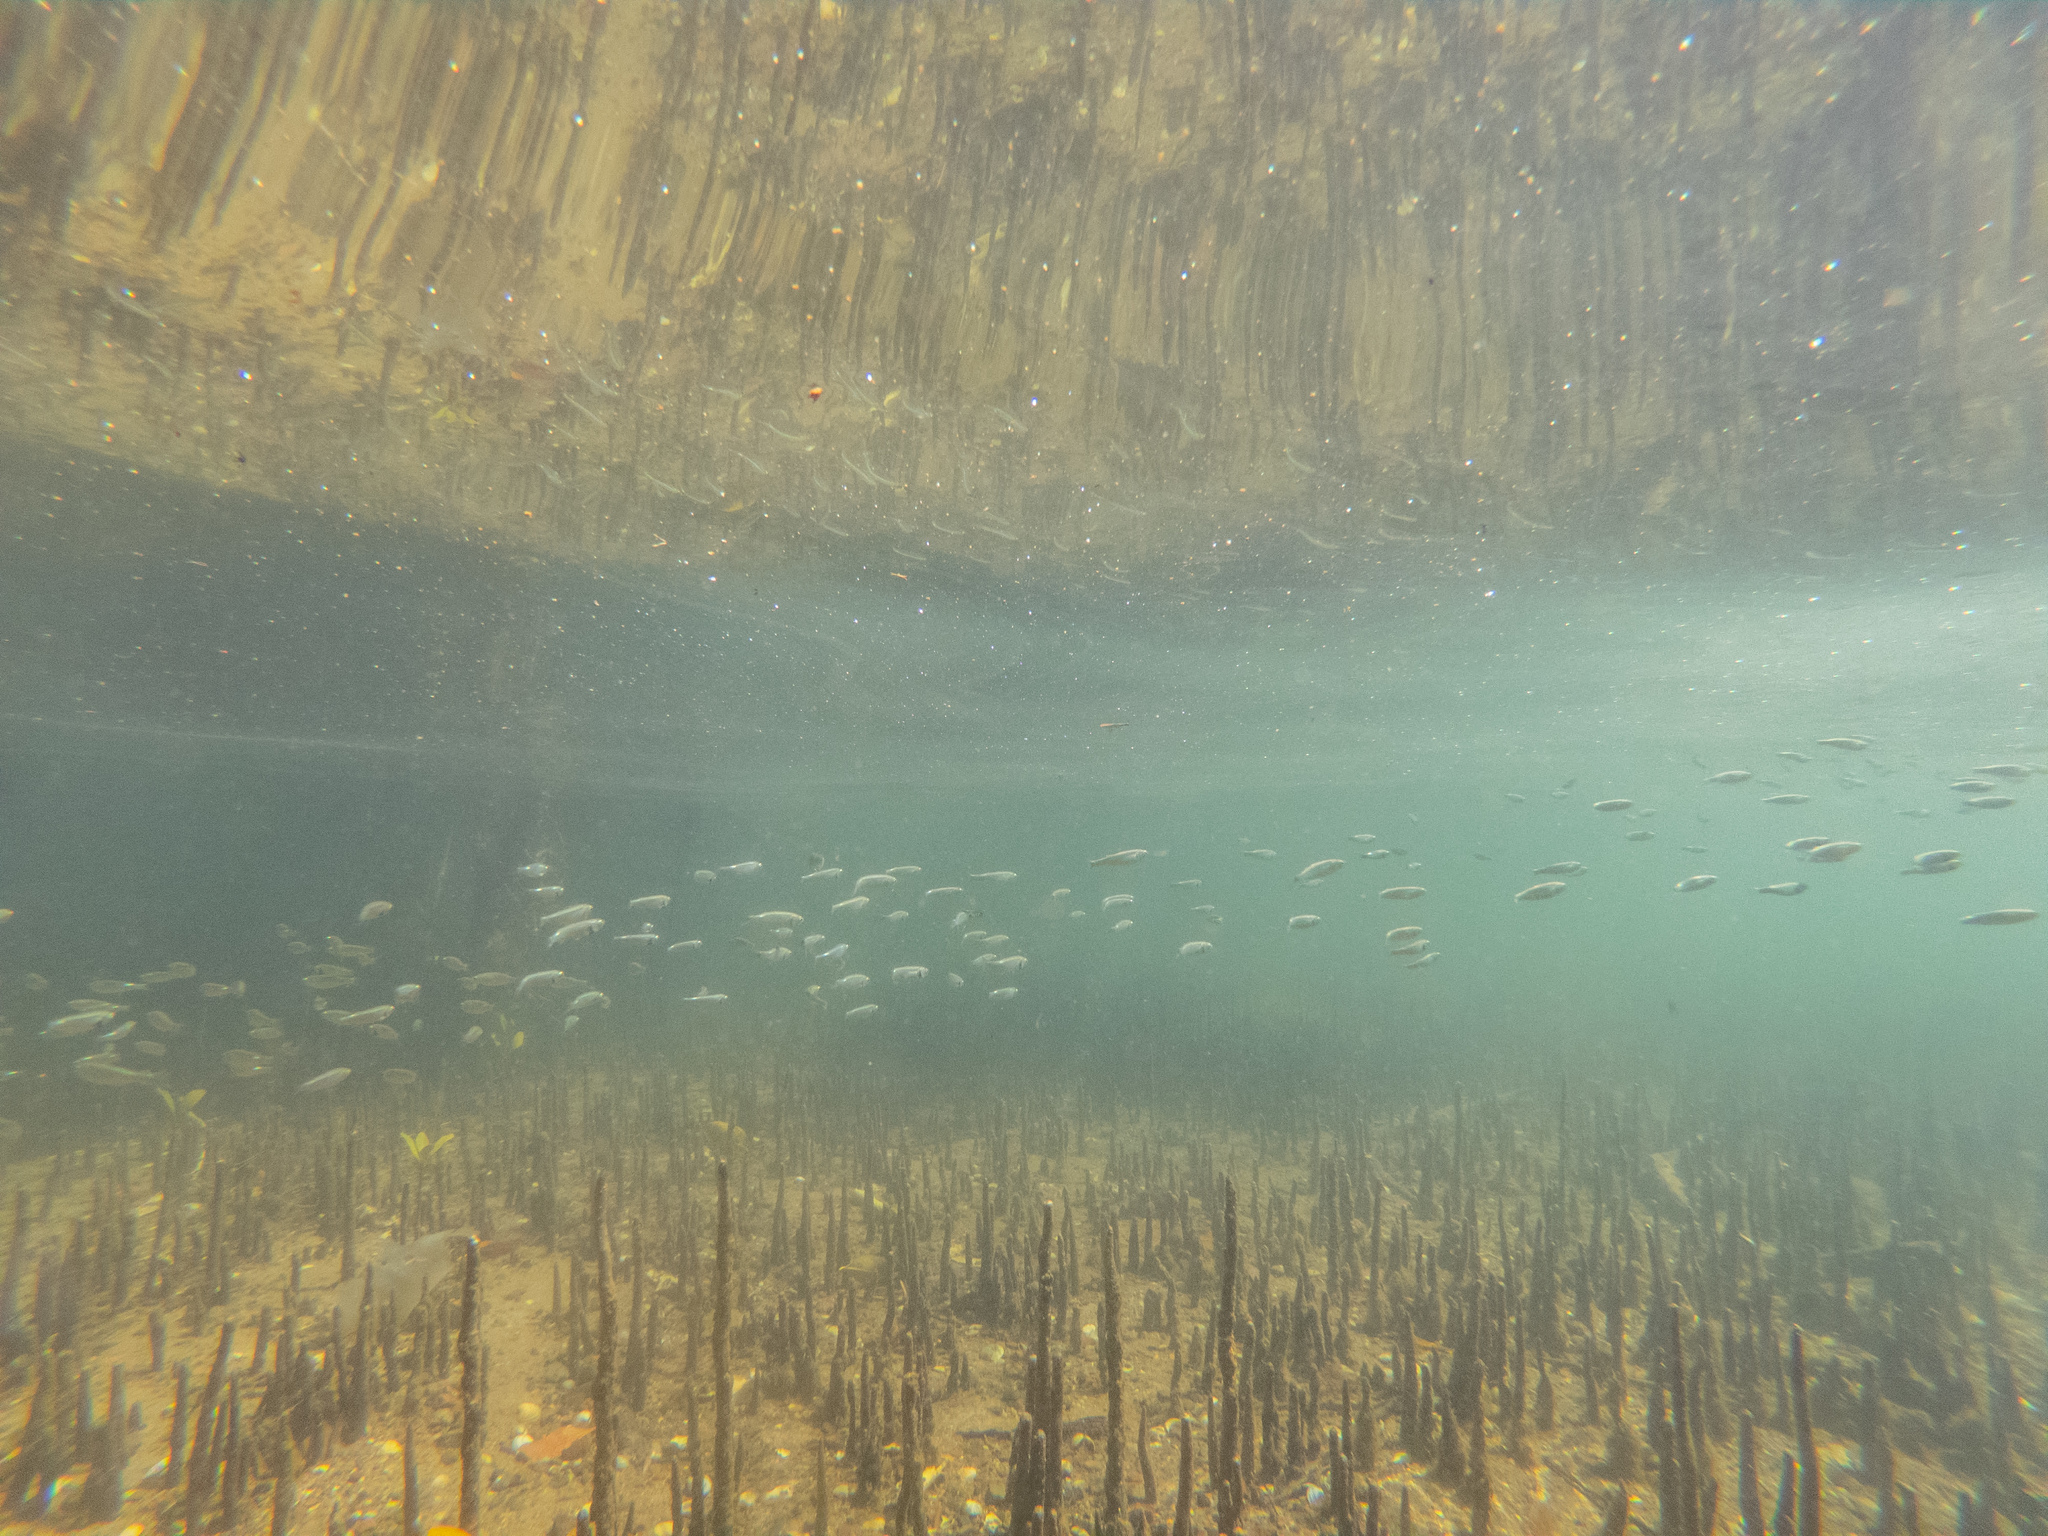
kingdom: Animalia
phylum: Chordata
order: Mugiliformes
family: Mugilidae
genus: Aldrichetta
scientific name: Aldrichetta forsteri
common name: Yellow-eye mullet
